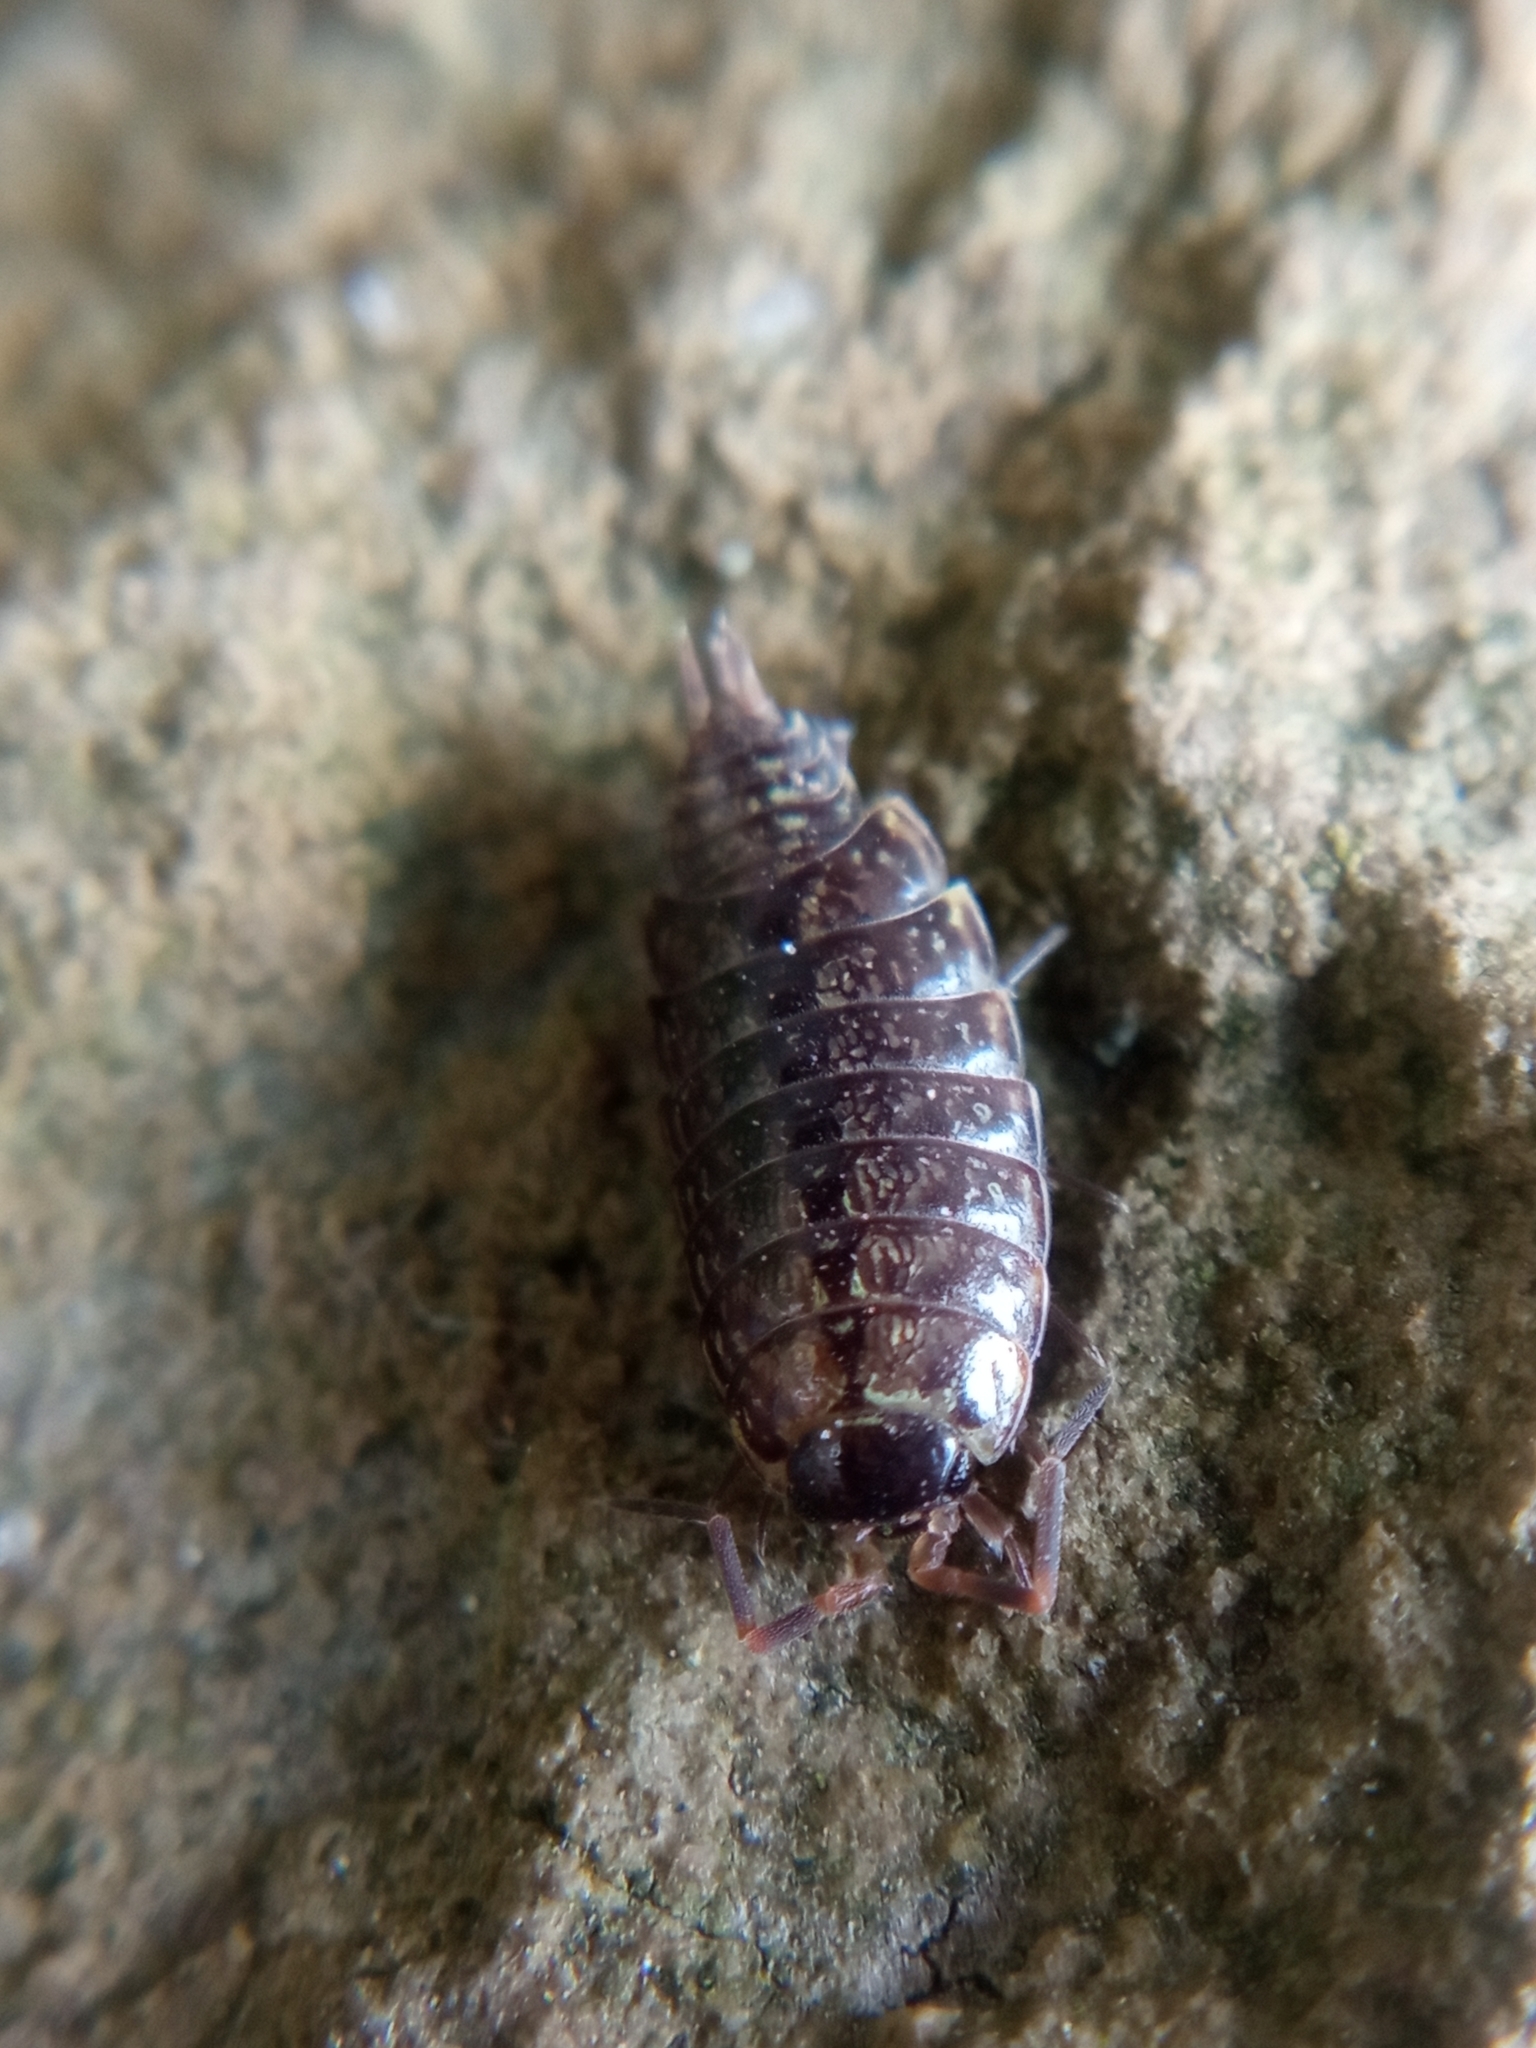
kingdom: Animalia
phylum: Arthropoda
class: Malacostraca
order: Isopoda
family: Philosciidae
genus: Philoscia
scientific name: Philoscia muscorum
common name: Common striped woodlouse
